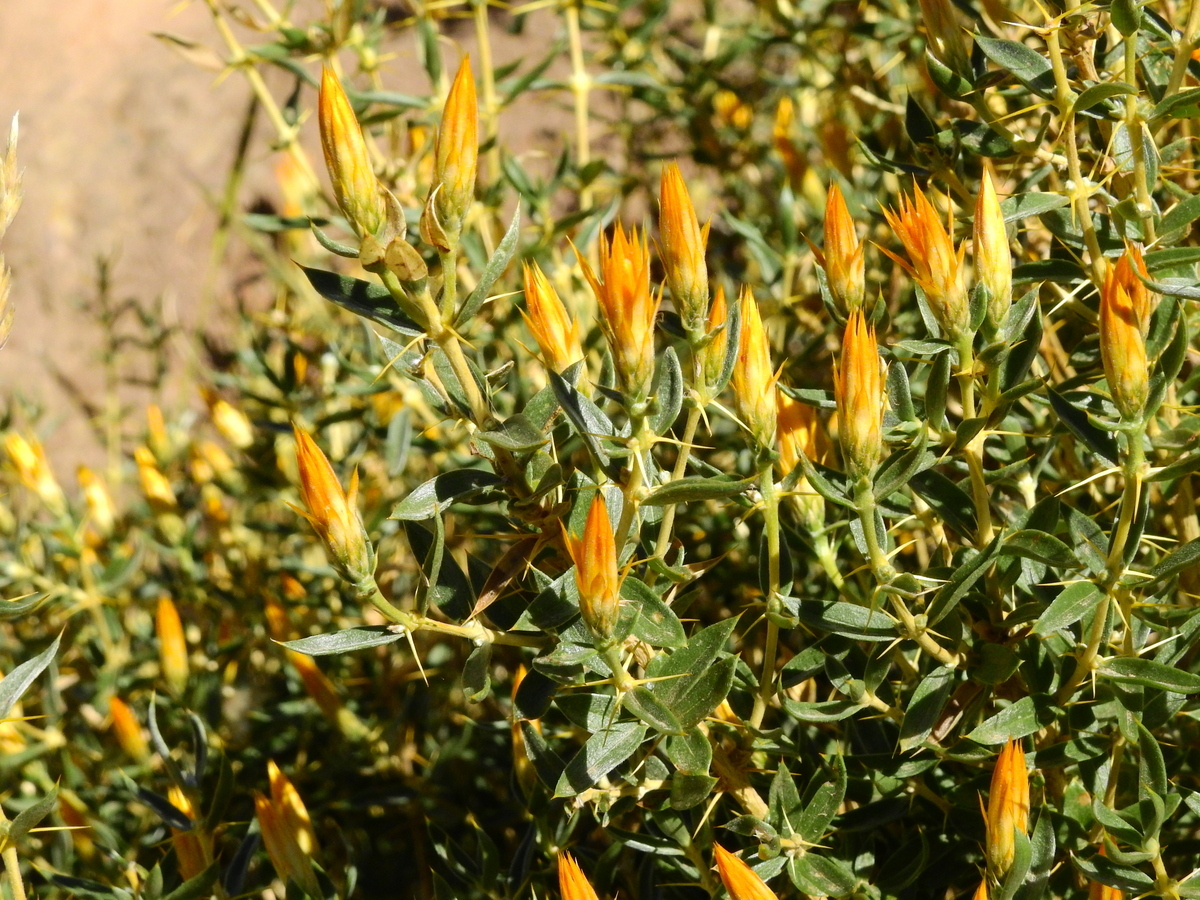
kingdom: Plantae
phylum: Tracheophyta
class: Magnoliopsida
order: Asterales
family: Asteraceae
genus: Chuquiraga
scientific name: Chuquiraga oppositifolia
